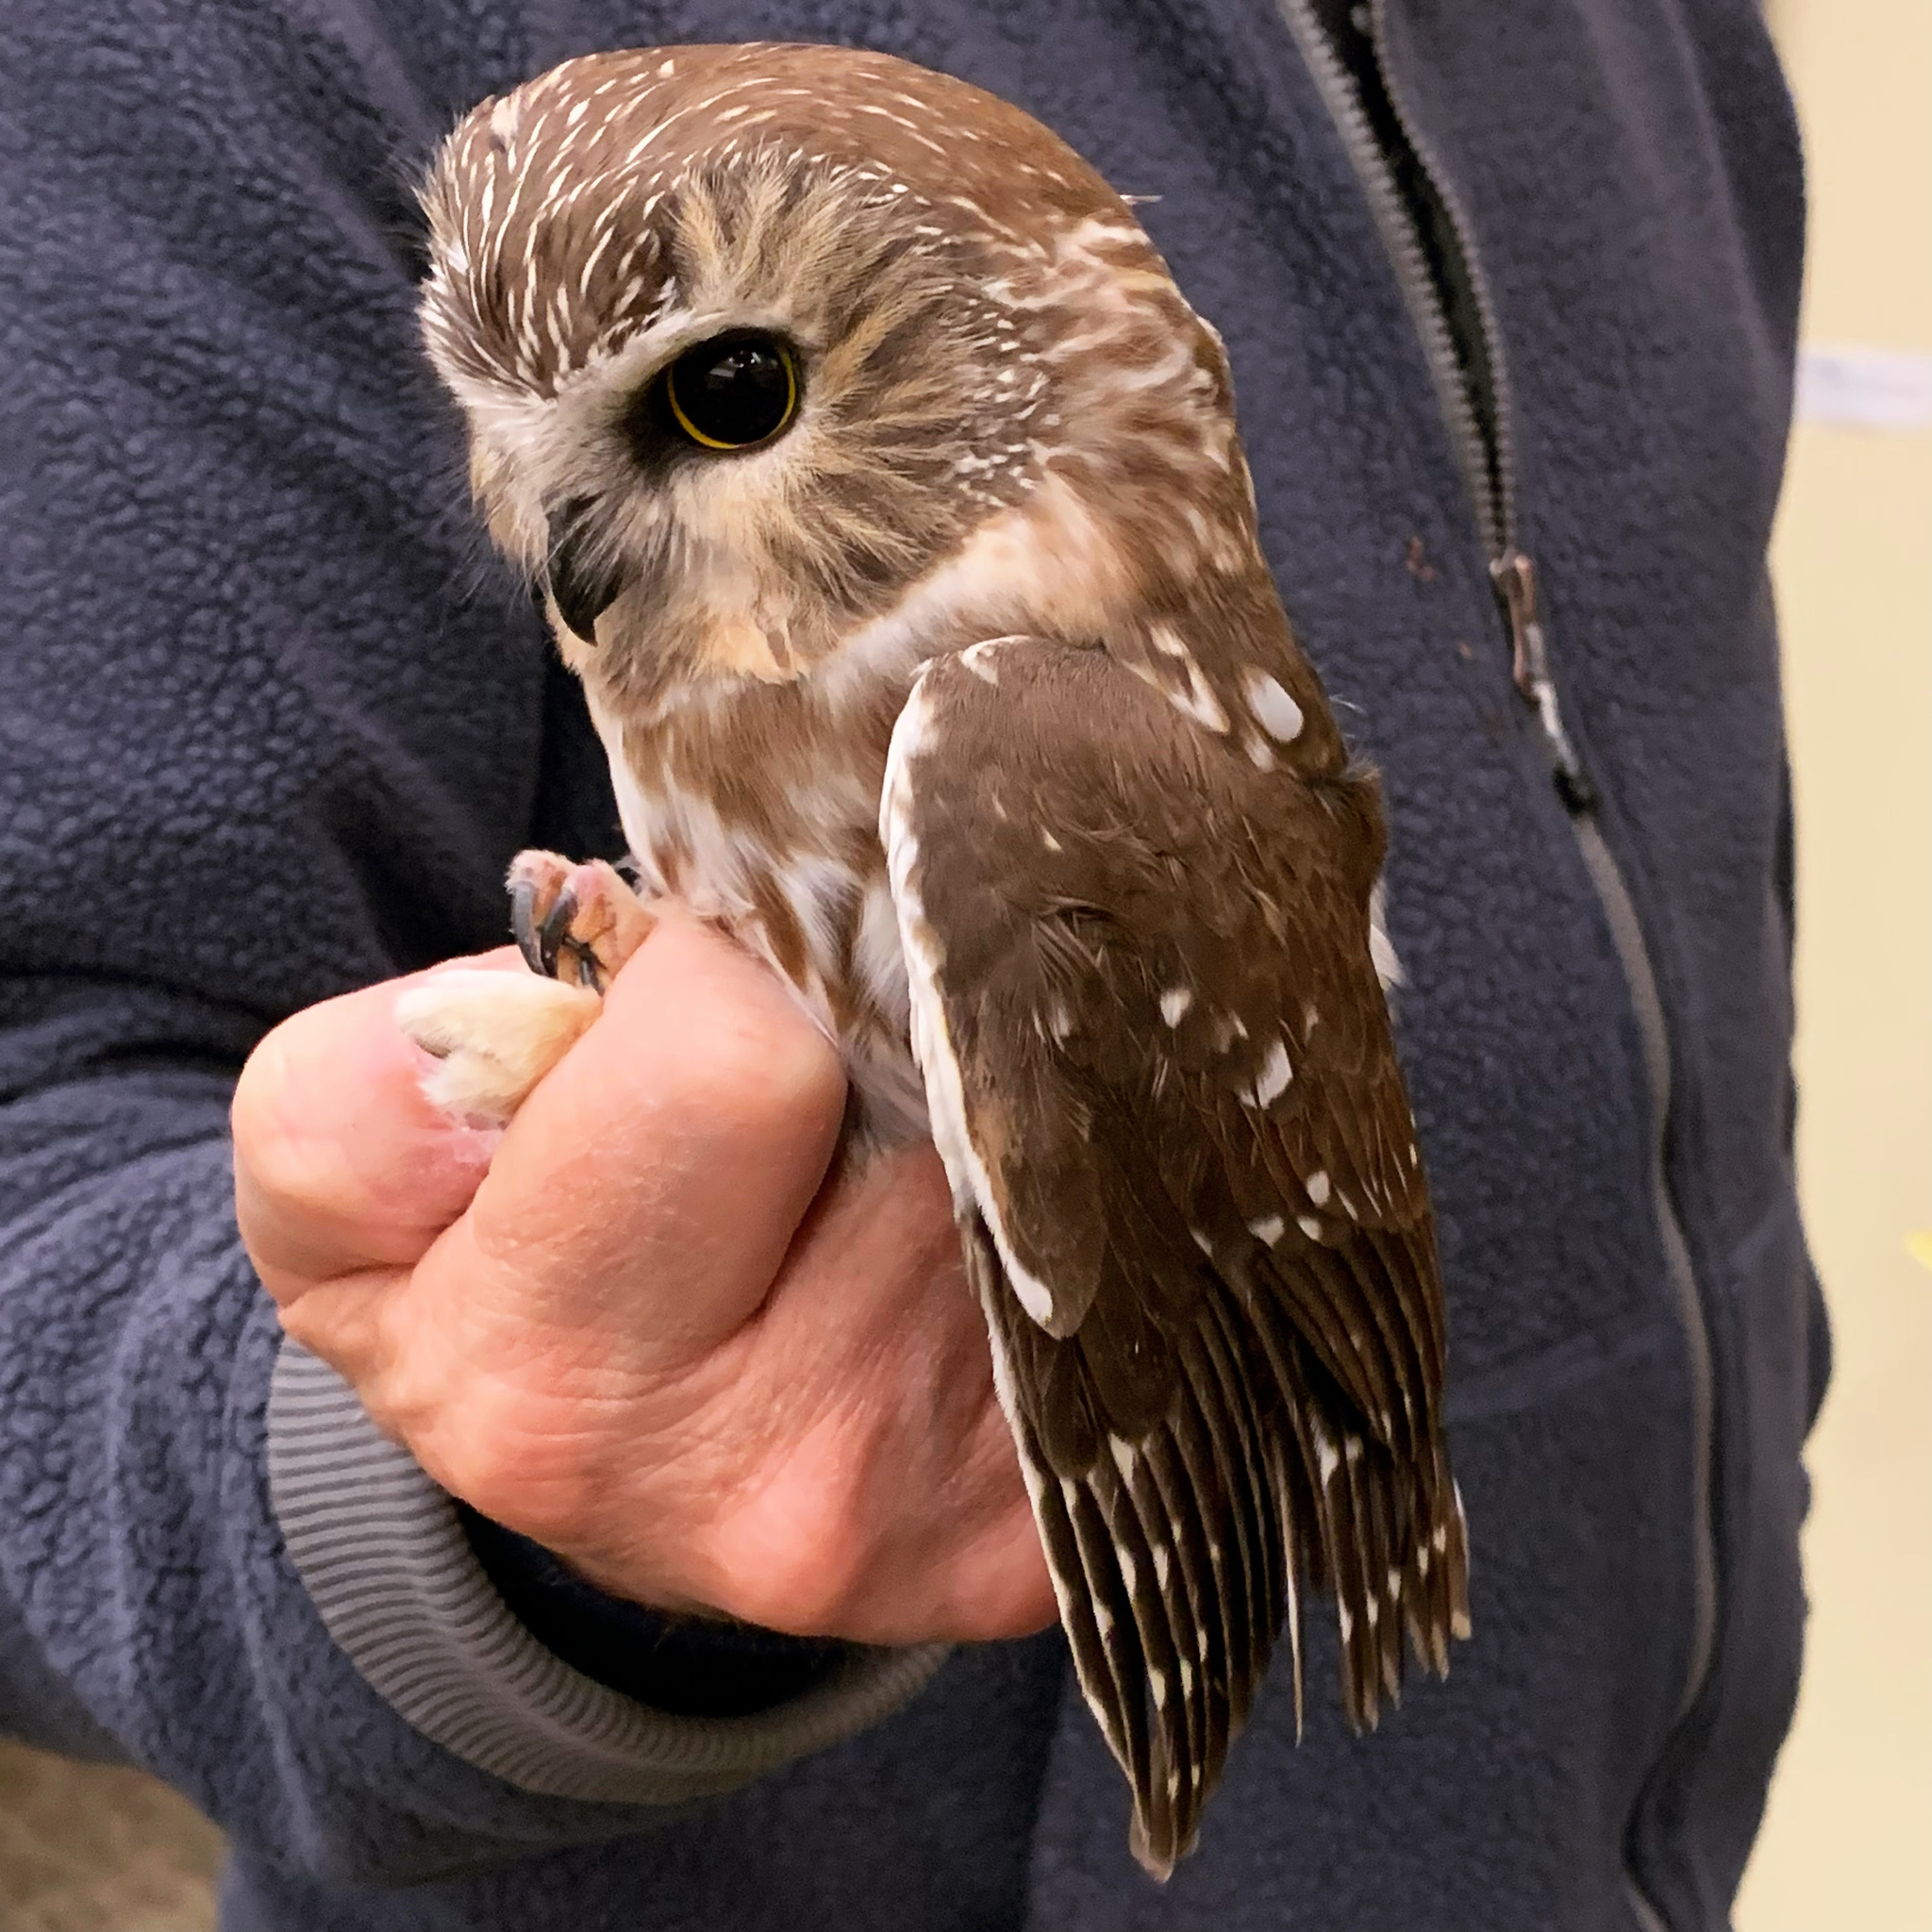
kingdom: Animalia
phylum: Chordata
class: Aves
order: Strigiformes
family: Strigidae
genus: Aegolius
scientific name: Aegolius acadicus
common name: Northern saw-whet owl
